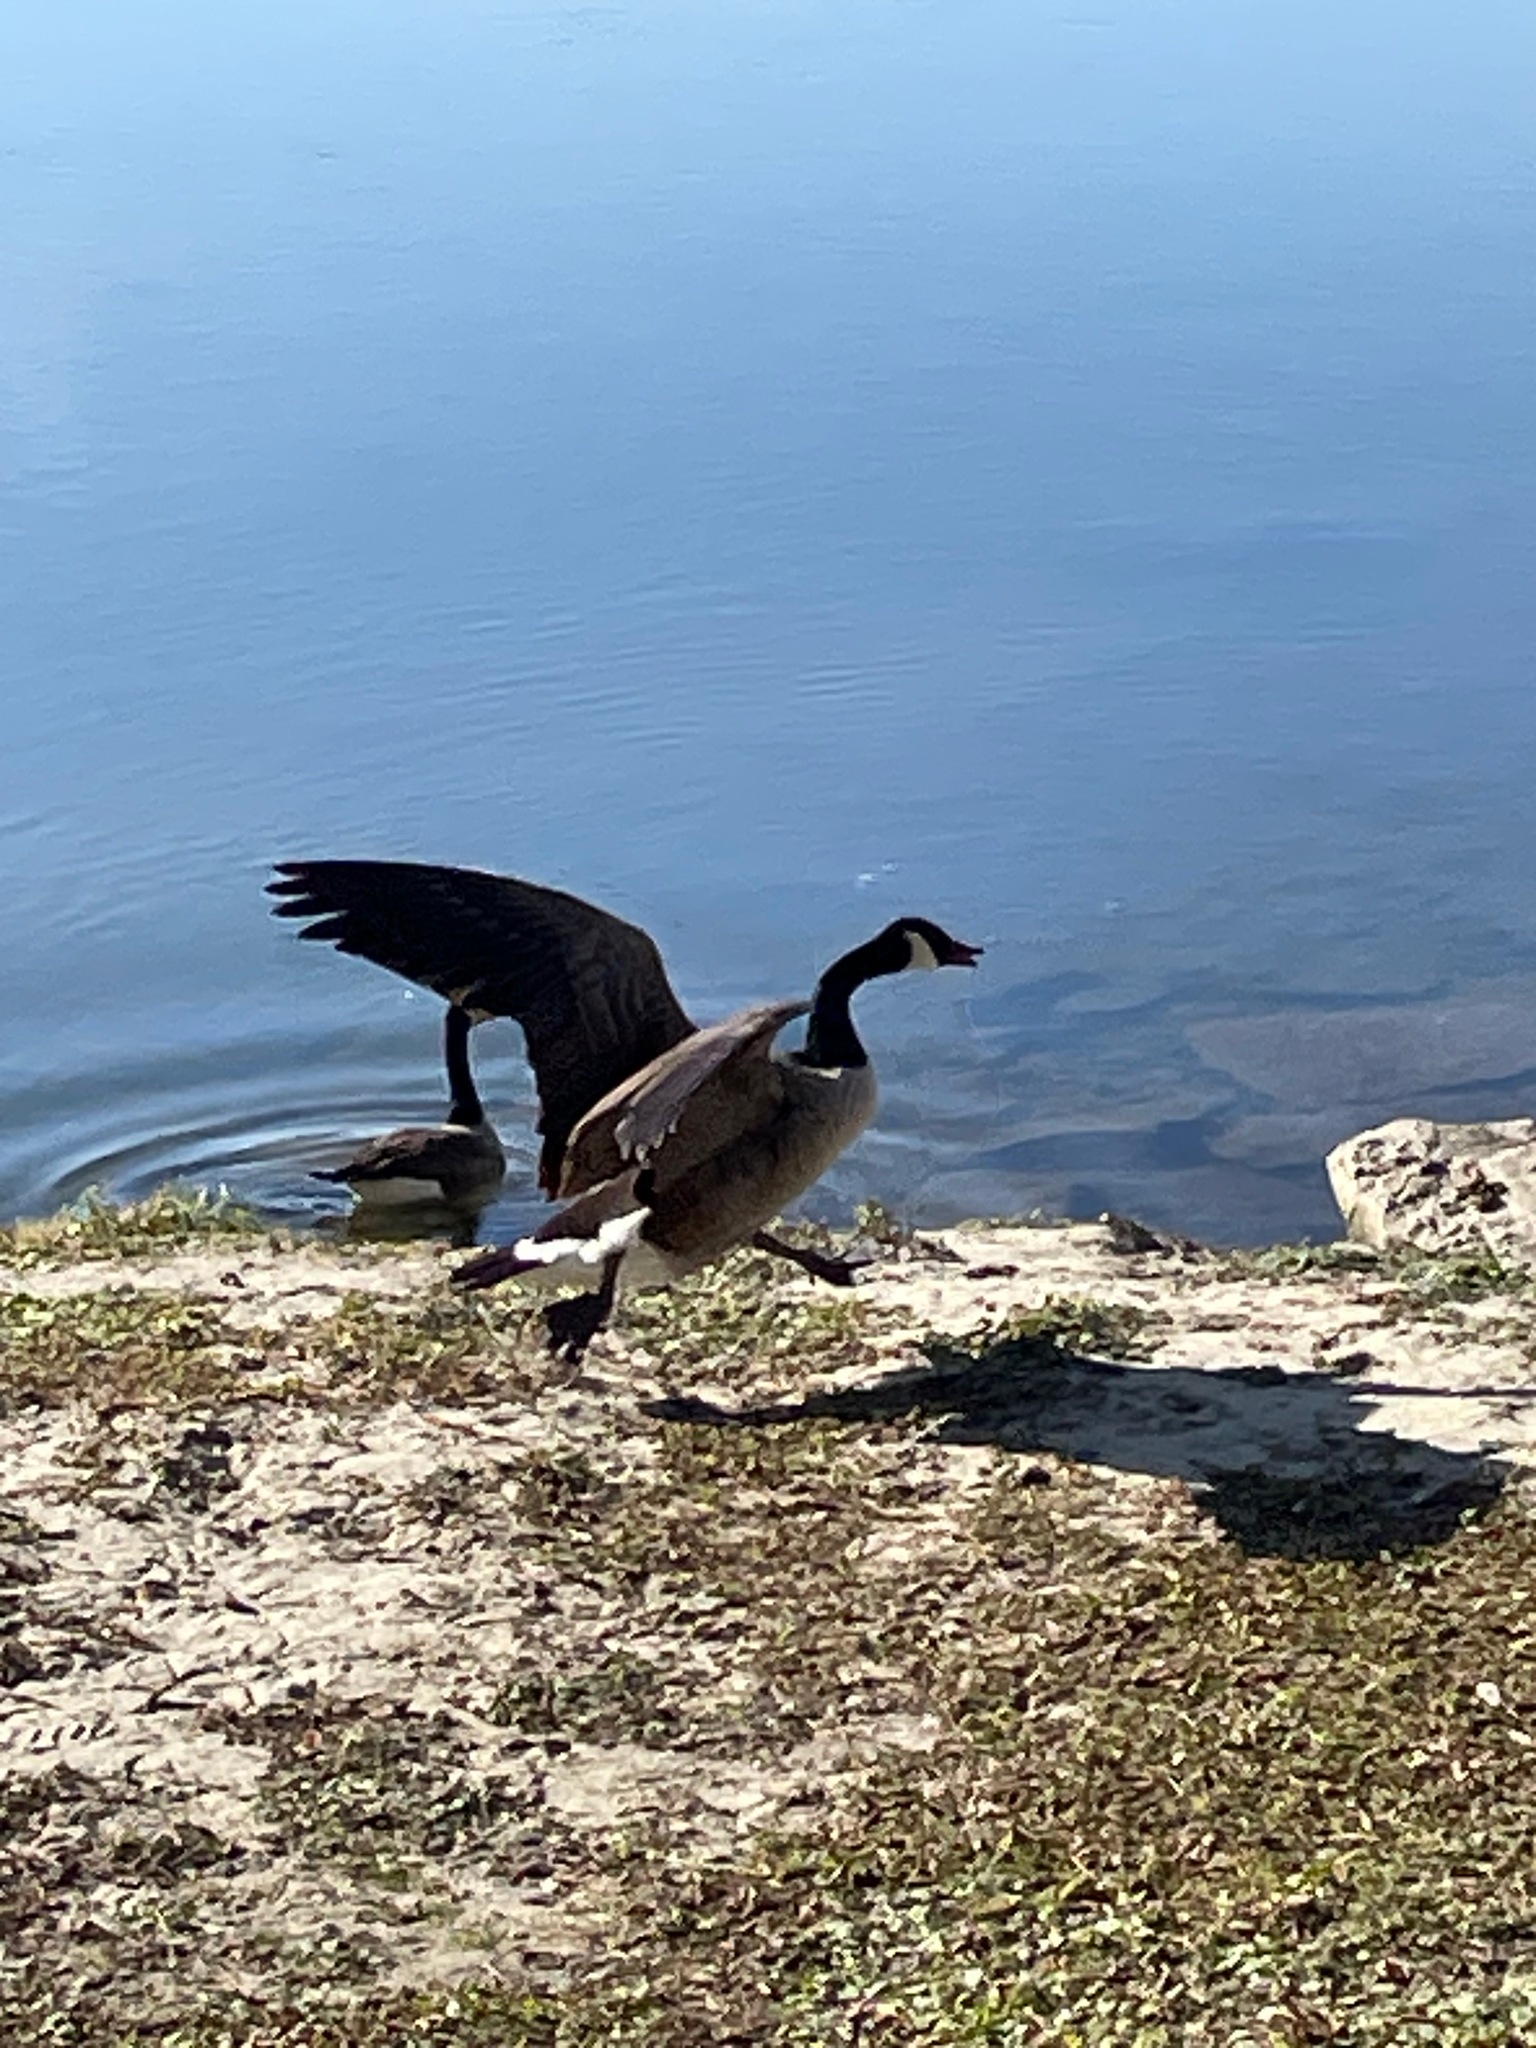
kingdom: Animalia
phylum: Chordata
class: Aves
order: Anseriformes
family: Anatidae
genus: Branta
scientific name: Branta canadensis
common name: Canada goose
